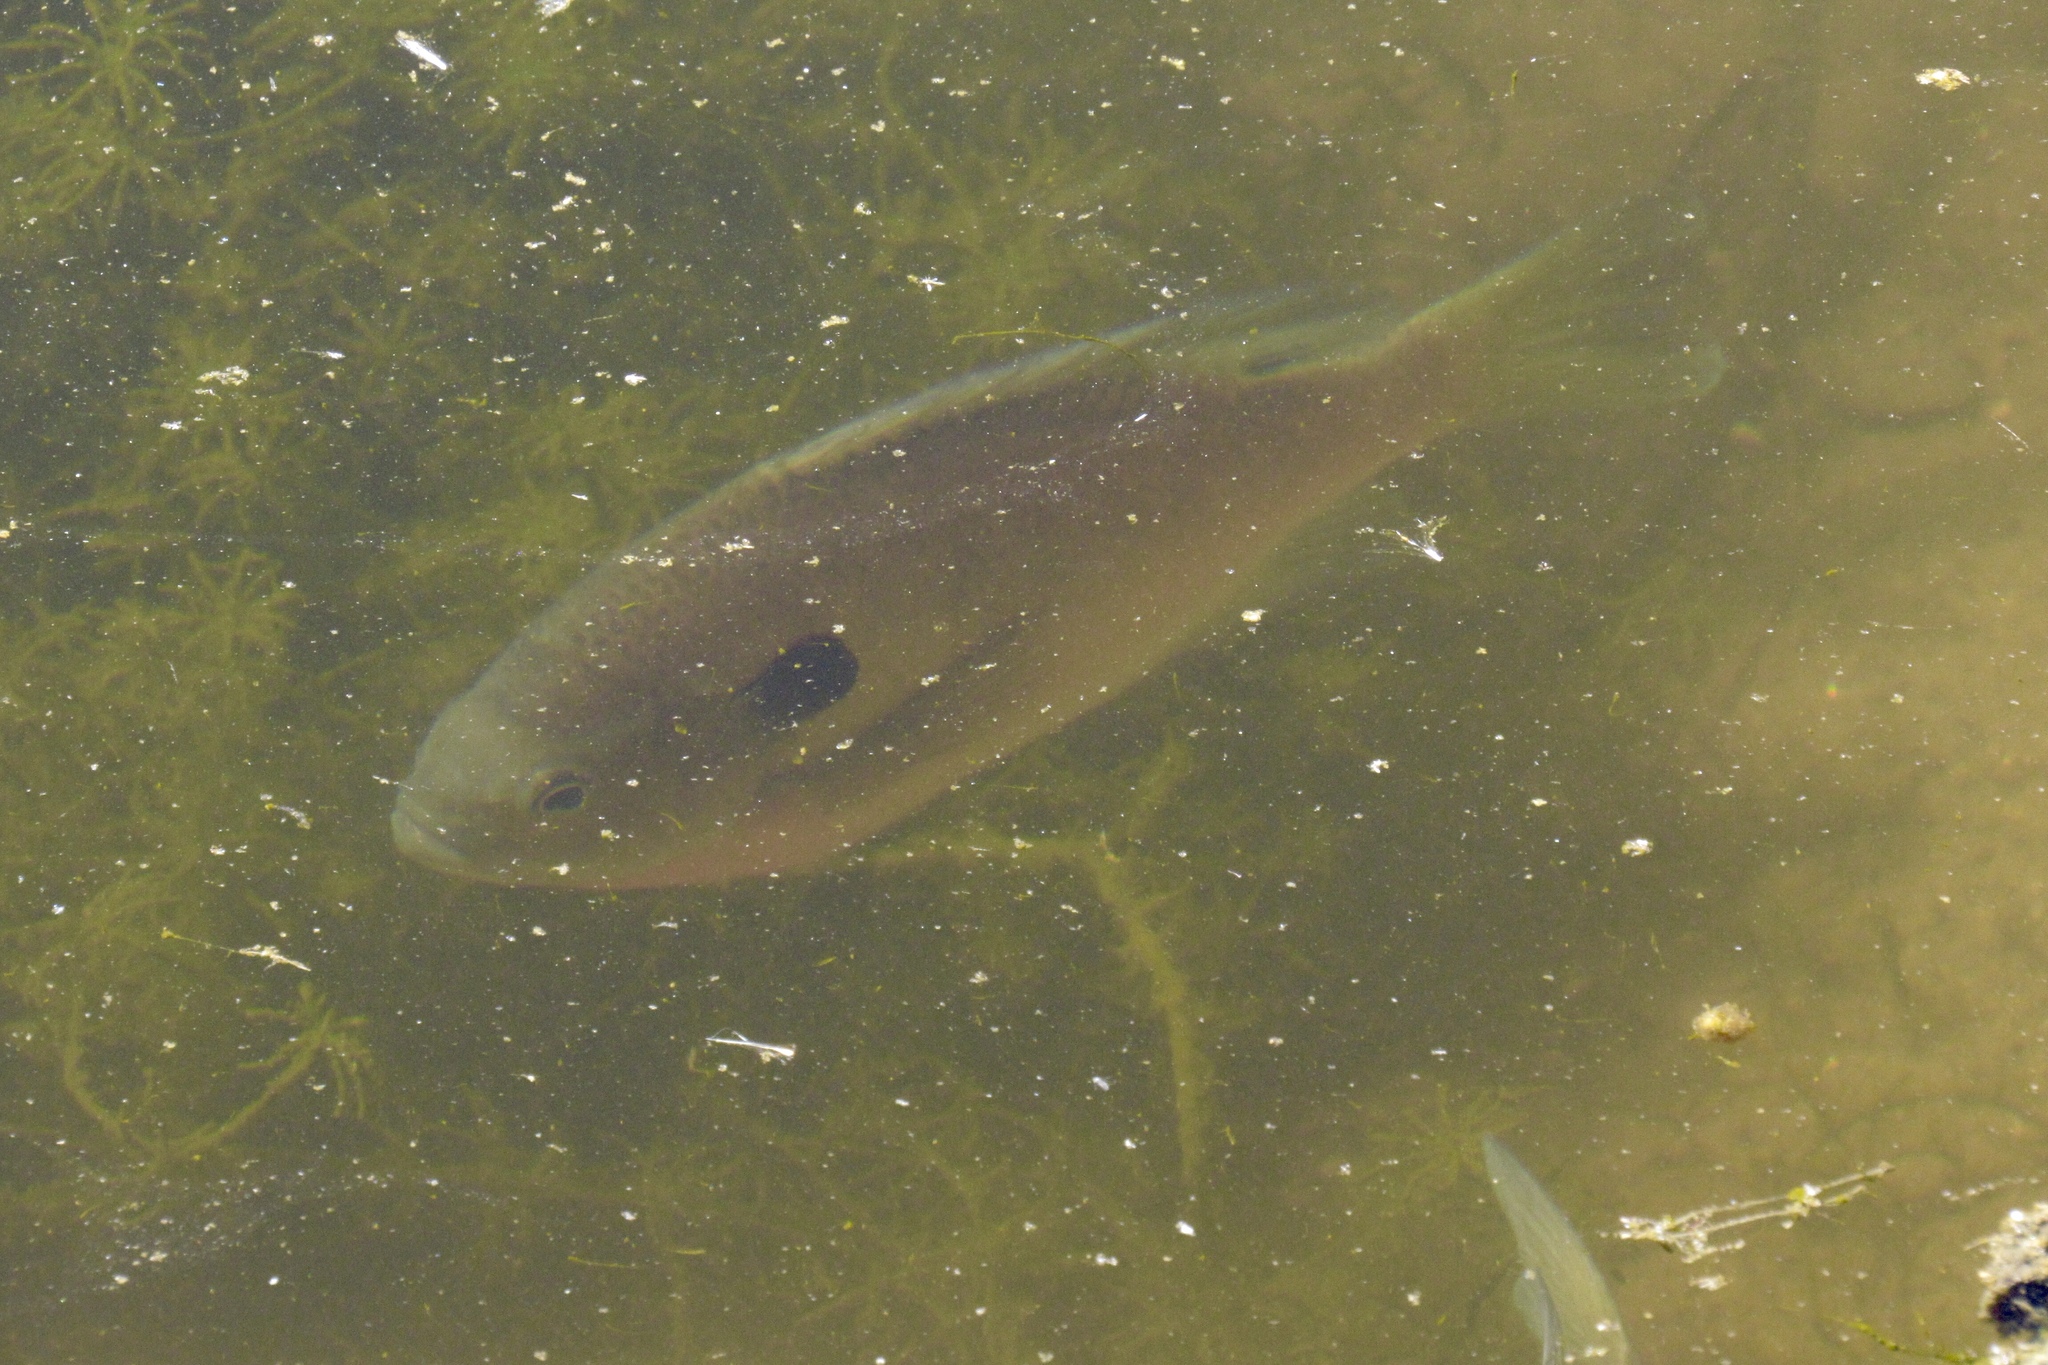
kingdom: Animalia
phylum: Chordata
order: Perciformes
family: Centrarchidae
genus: Lepomis
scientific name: Lepomis macrochirus
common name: Bluegill
